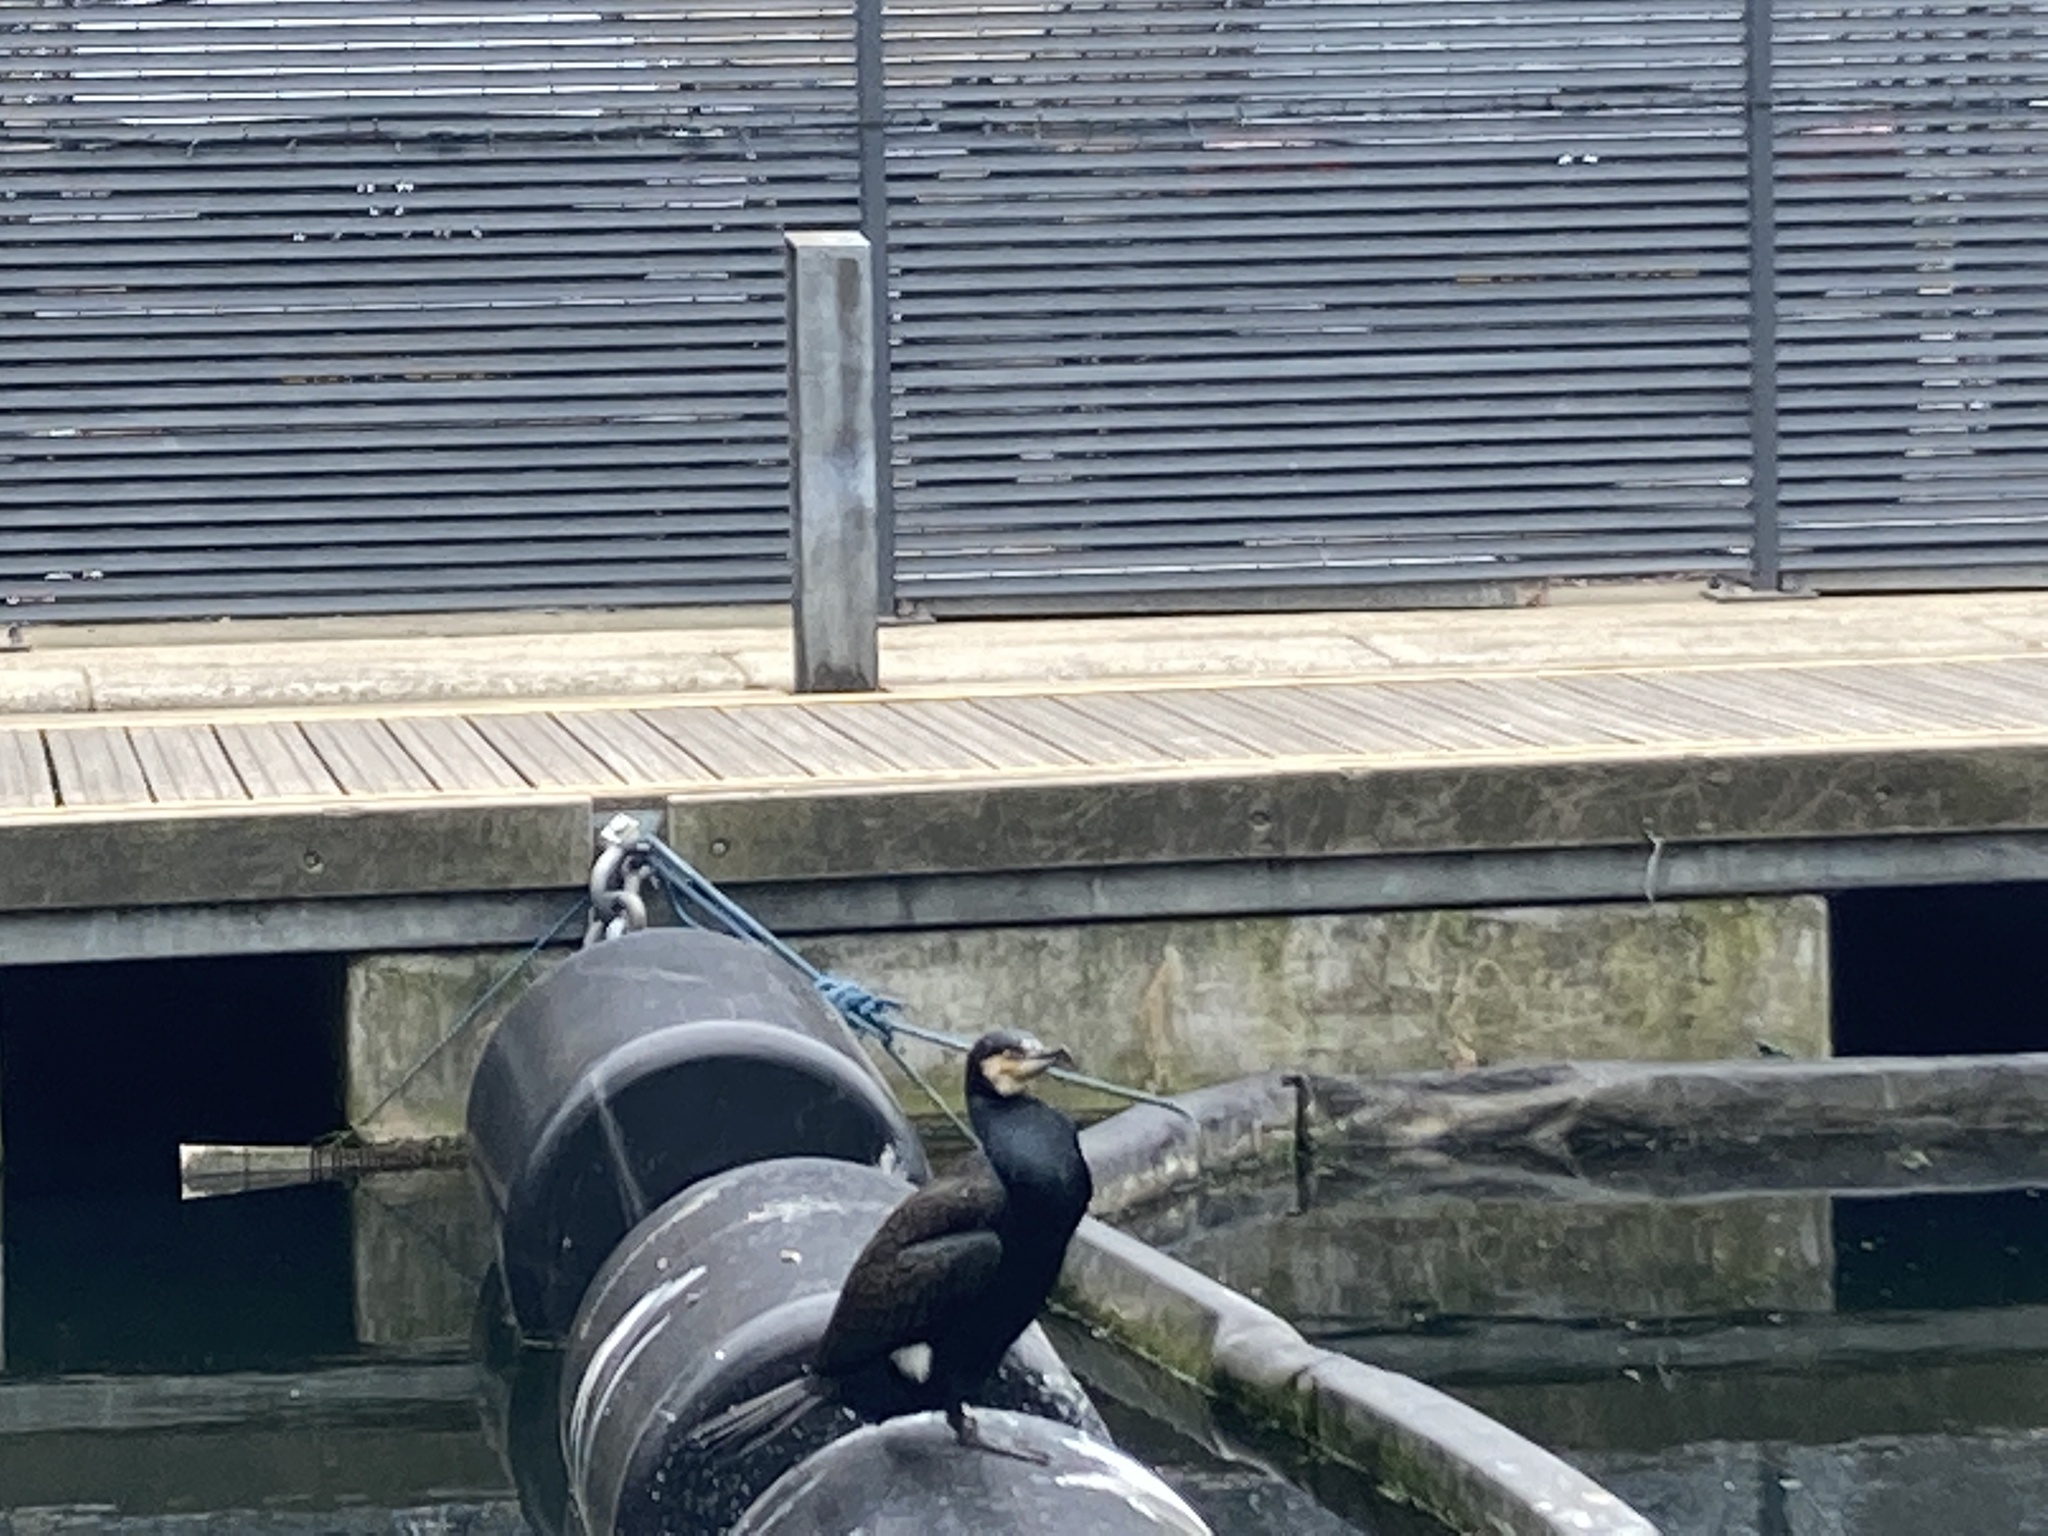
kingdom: Animalia
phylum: Chordata
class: Aves
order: Suliformes
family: Phalacrocoracidae
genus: Phalacrocorax
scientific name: Phalacrocorax carbo
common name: Great cormorant
